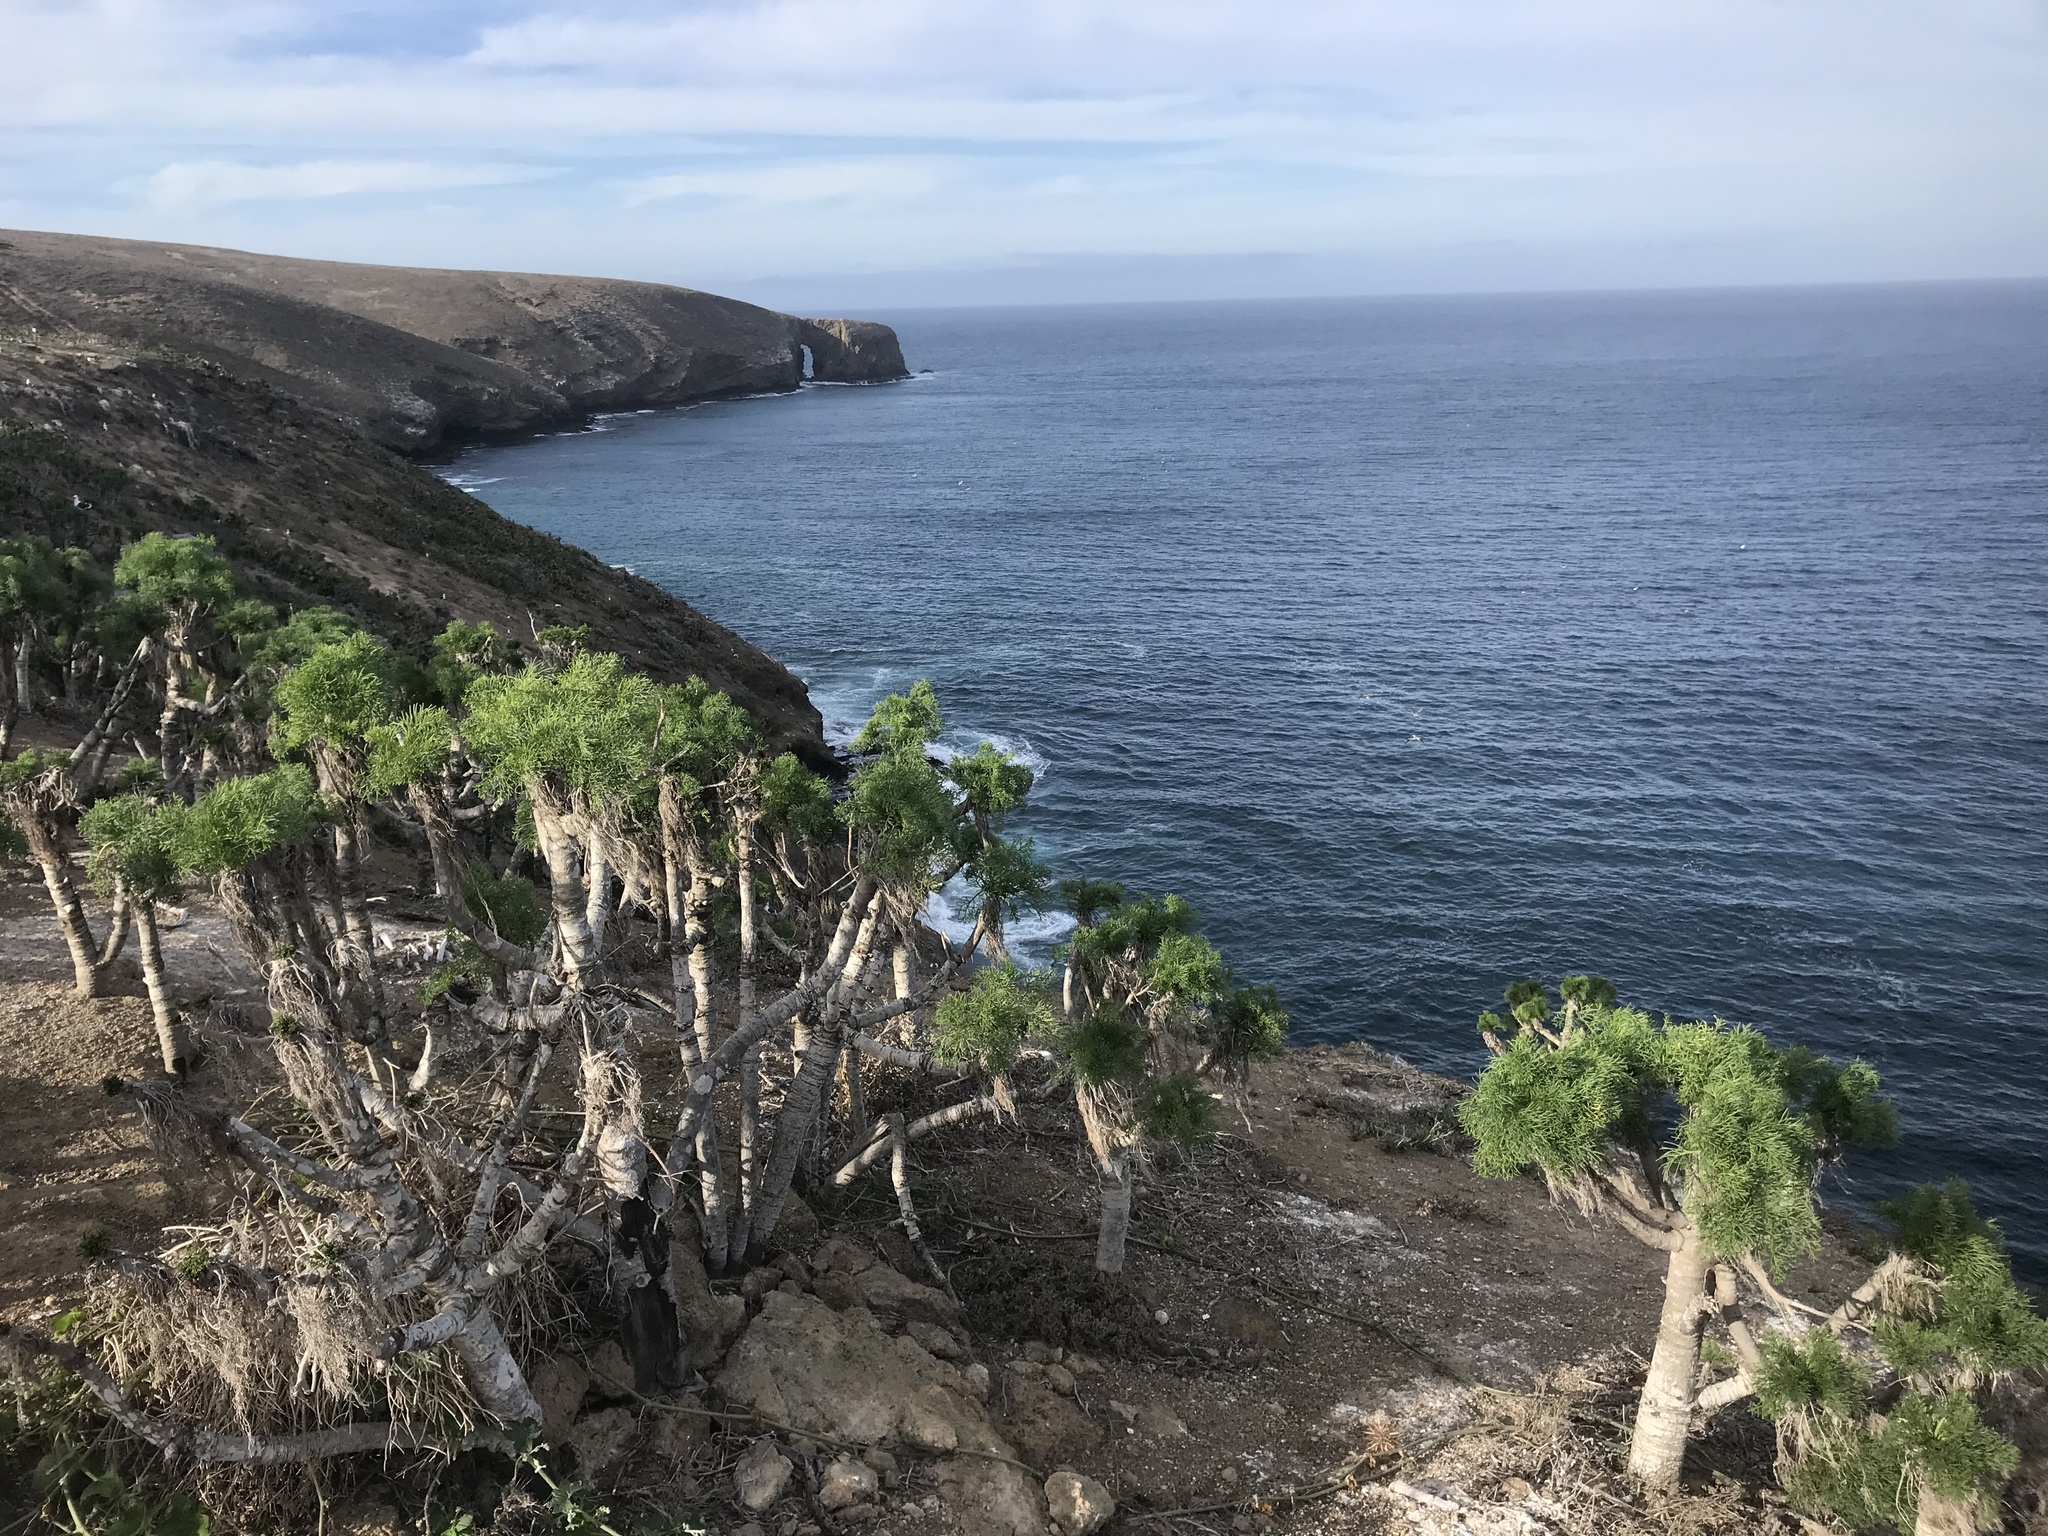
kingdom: Plantae
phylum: Tracheophyta
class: Magnoliopsida
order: Asterales
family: Asteraceae
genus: Coreopsis
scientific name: Coreopsis gigantea
